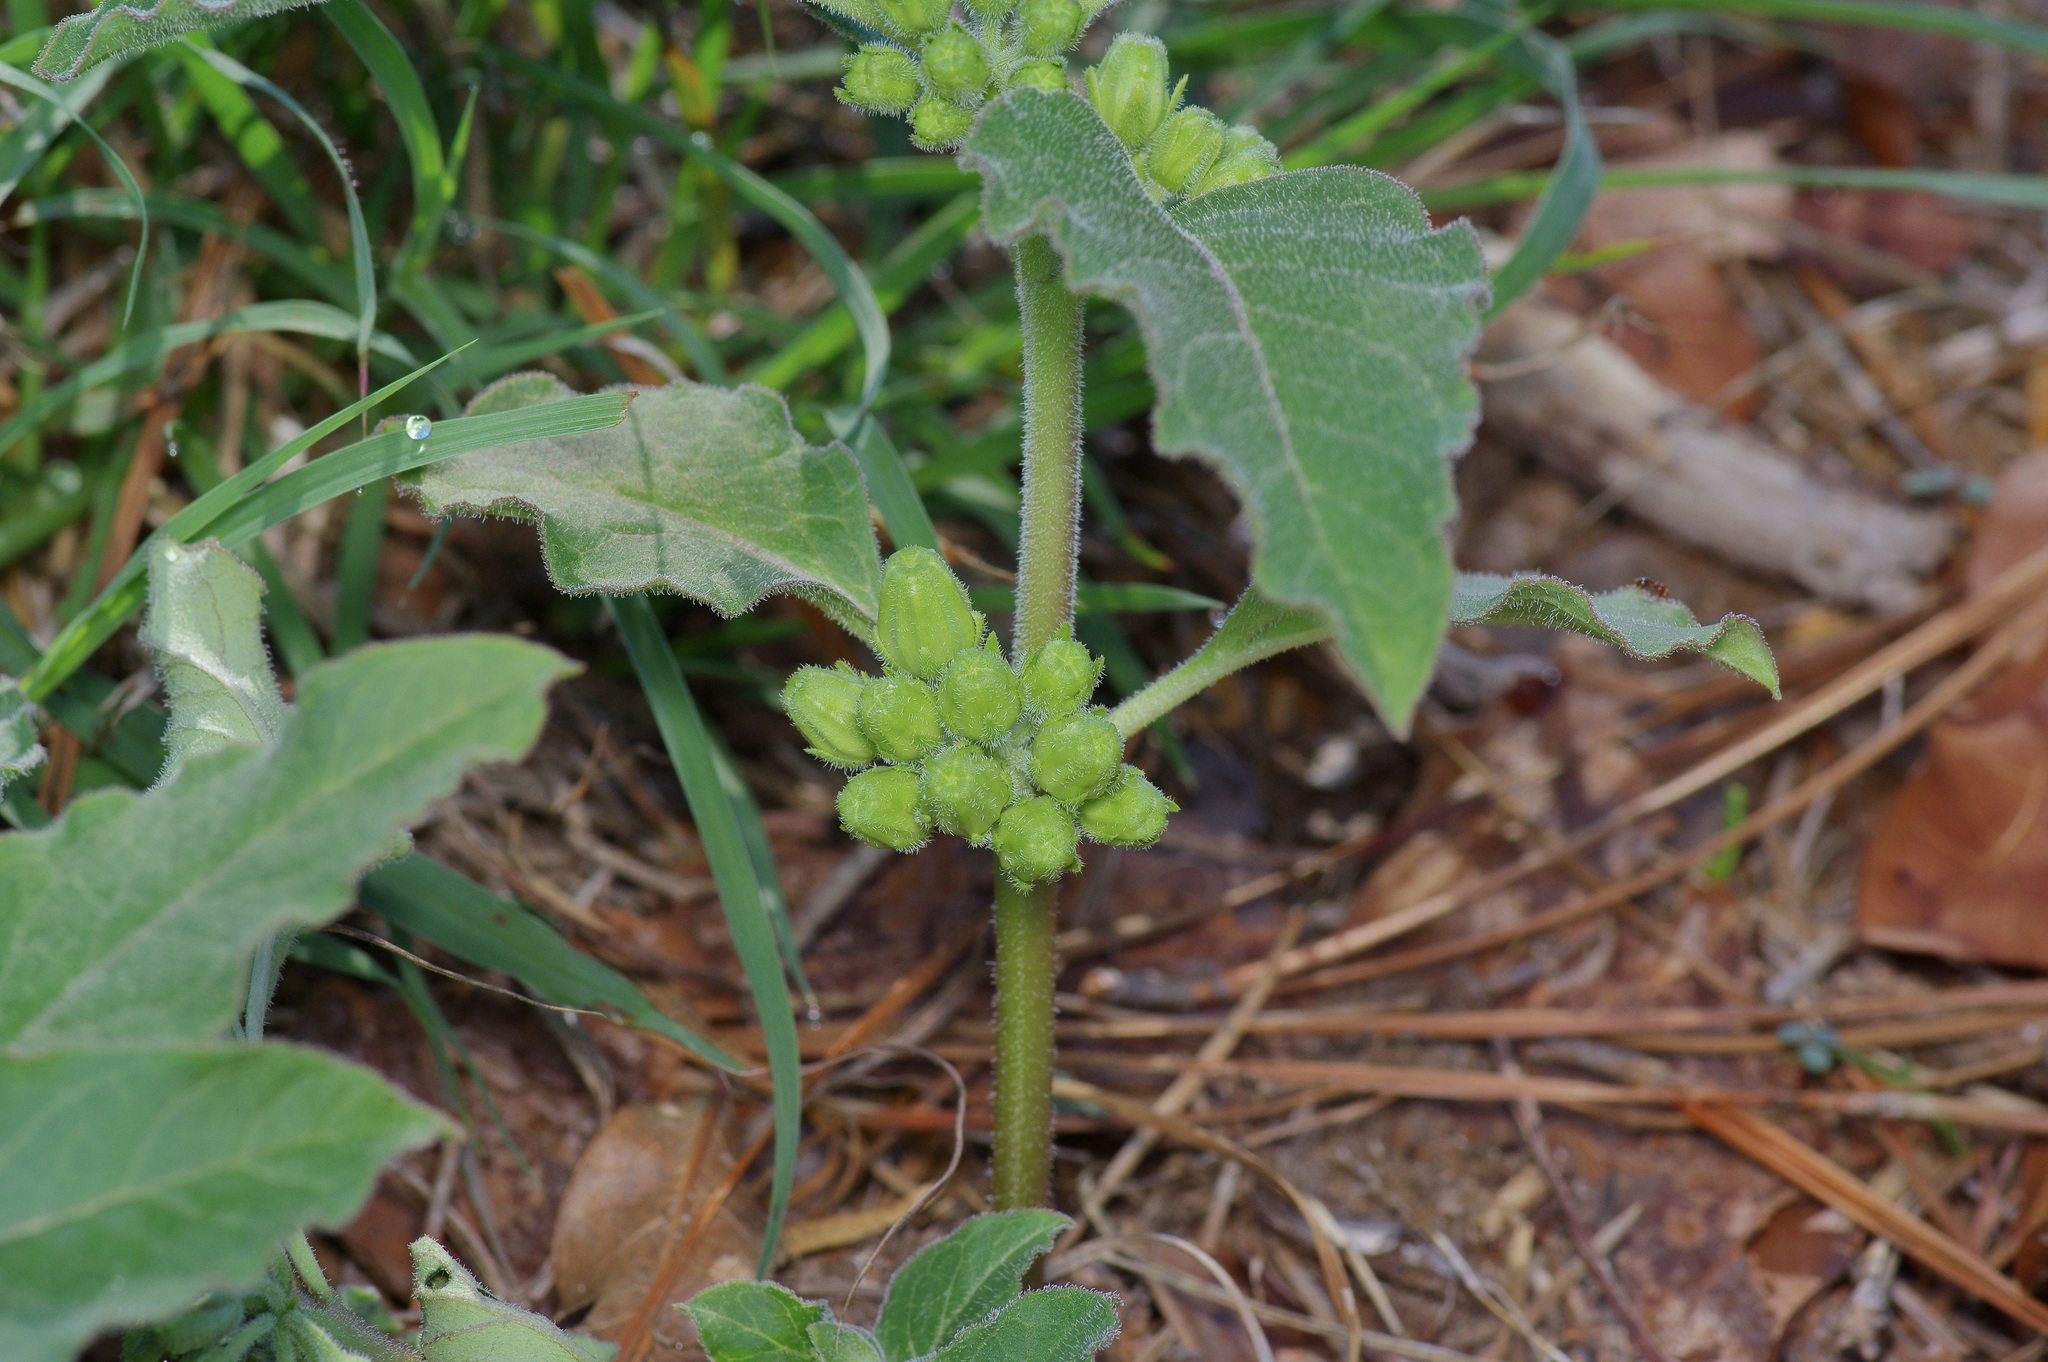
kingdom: Plantae
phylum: Tracheophyta
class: Magnoliopsida
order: Gentianales
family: Apocynaceae
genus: Asclepias
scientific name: Asclepias oenotheroides
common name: Zizotes milkweed
